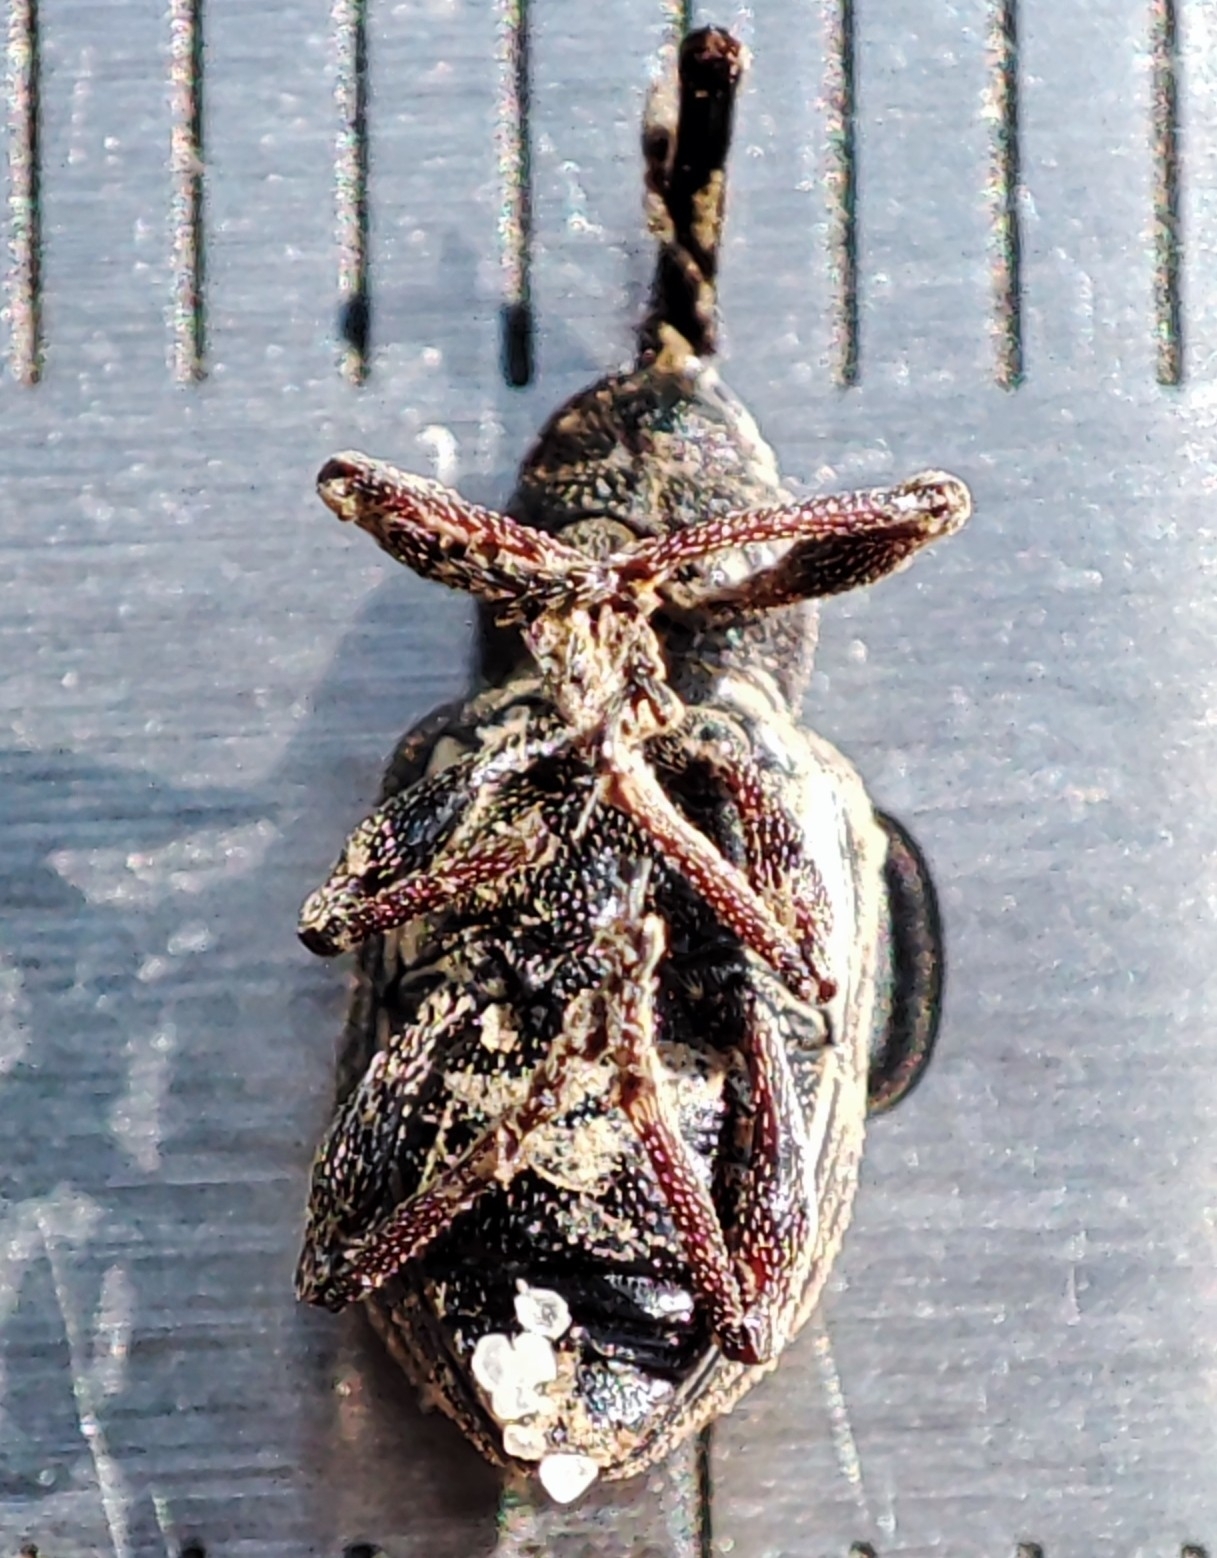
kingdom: Animalia
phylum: Arthropoda
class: Insecta
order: Coleoptera
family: Brachyceridae
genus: Notaris
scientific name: Notaris scirpi
